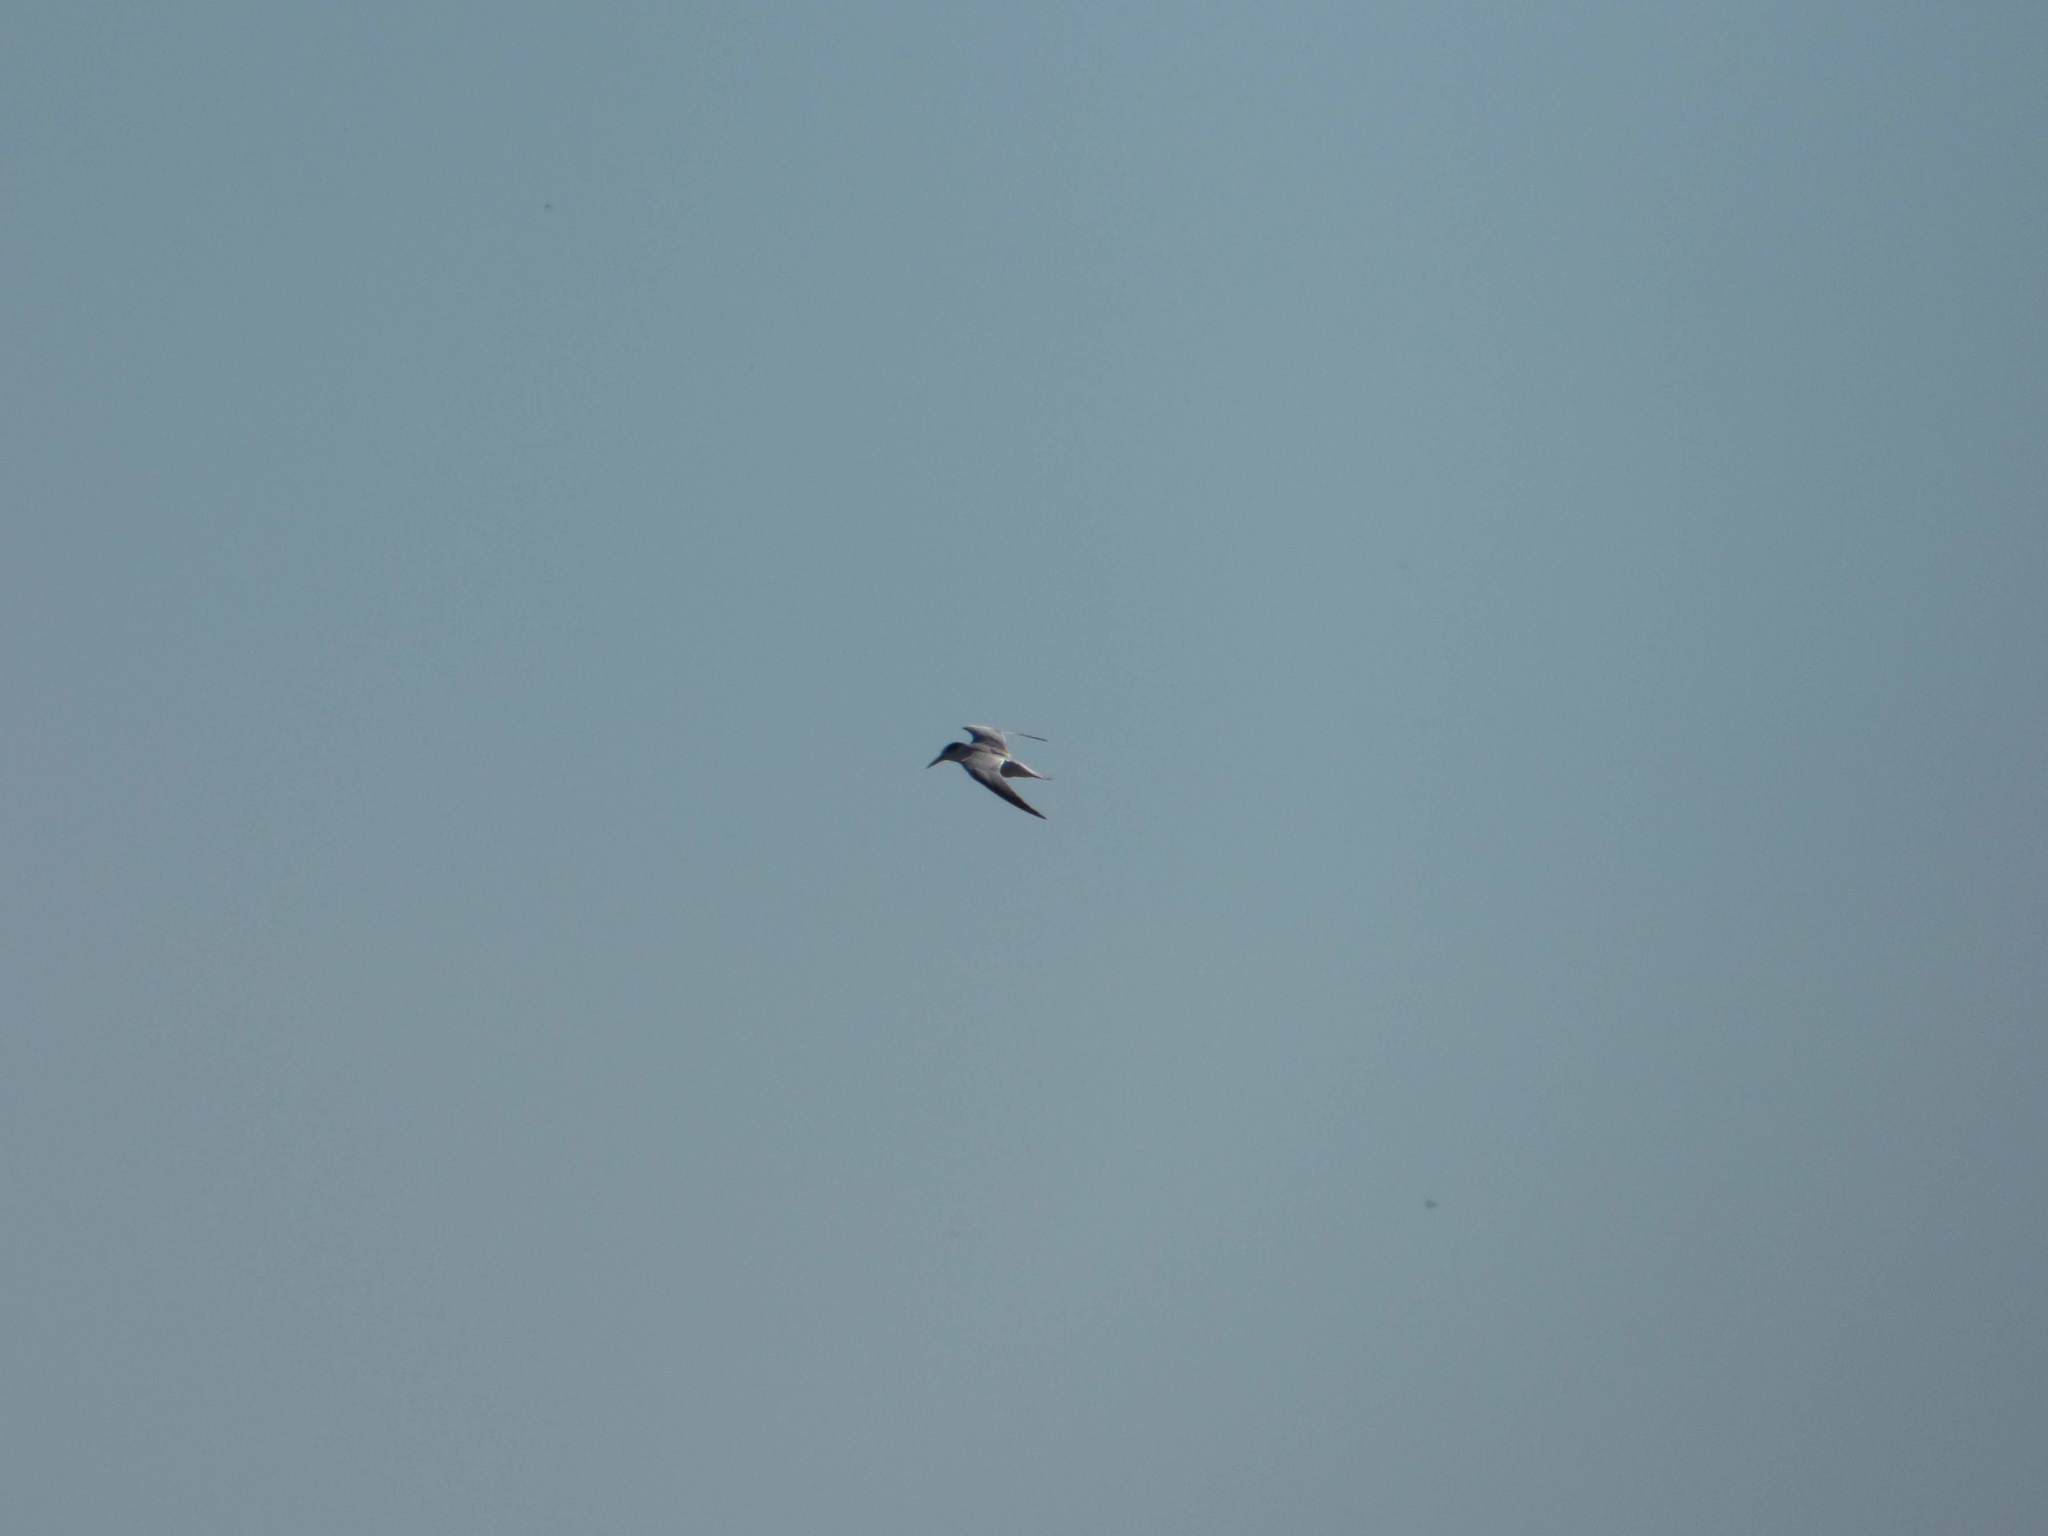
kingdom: Animalia
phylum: Chordata
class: Aves
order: Charadriiformes
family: Laridae
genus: Sternula
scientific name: Sternula superciliaris
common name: Yellow-billed tern
